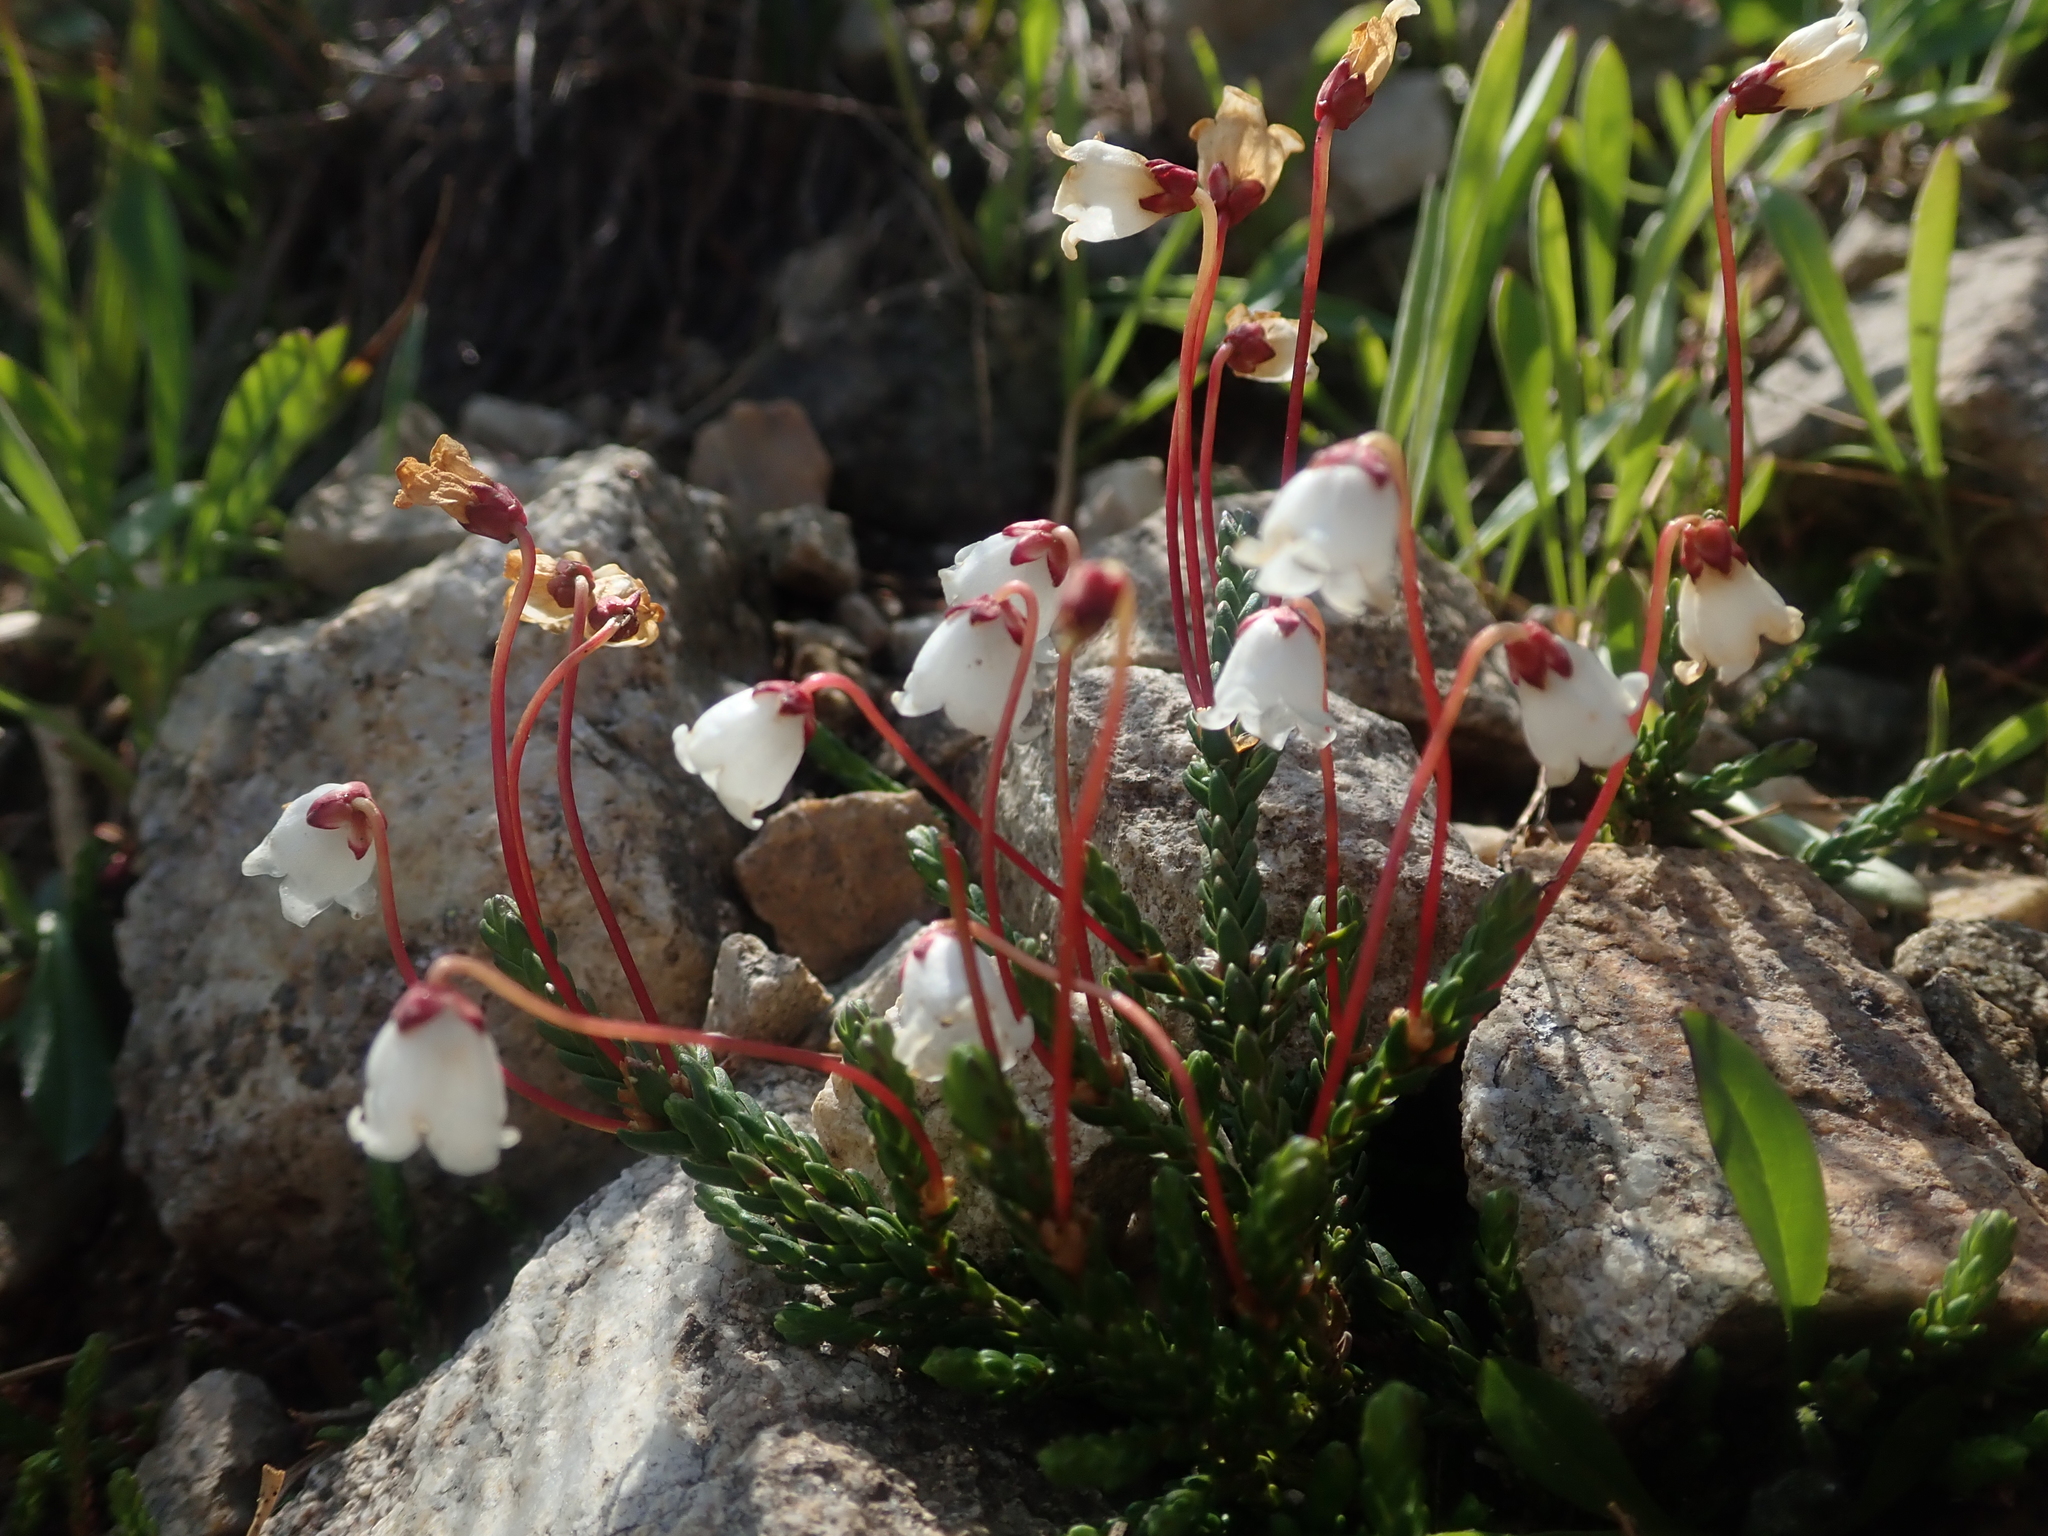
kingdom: Plantae
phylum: Tracheophyta
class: Magnoliopsida
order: Ericales
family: Ericaceae
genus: Cassiope
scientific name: Cassiope mertensiana
